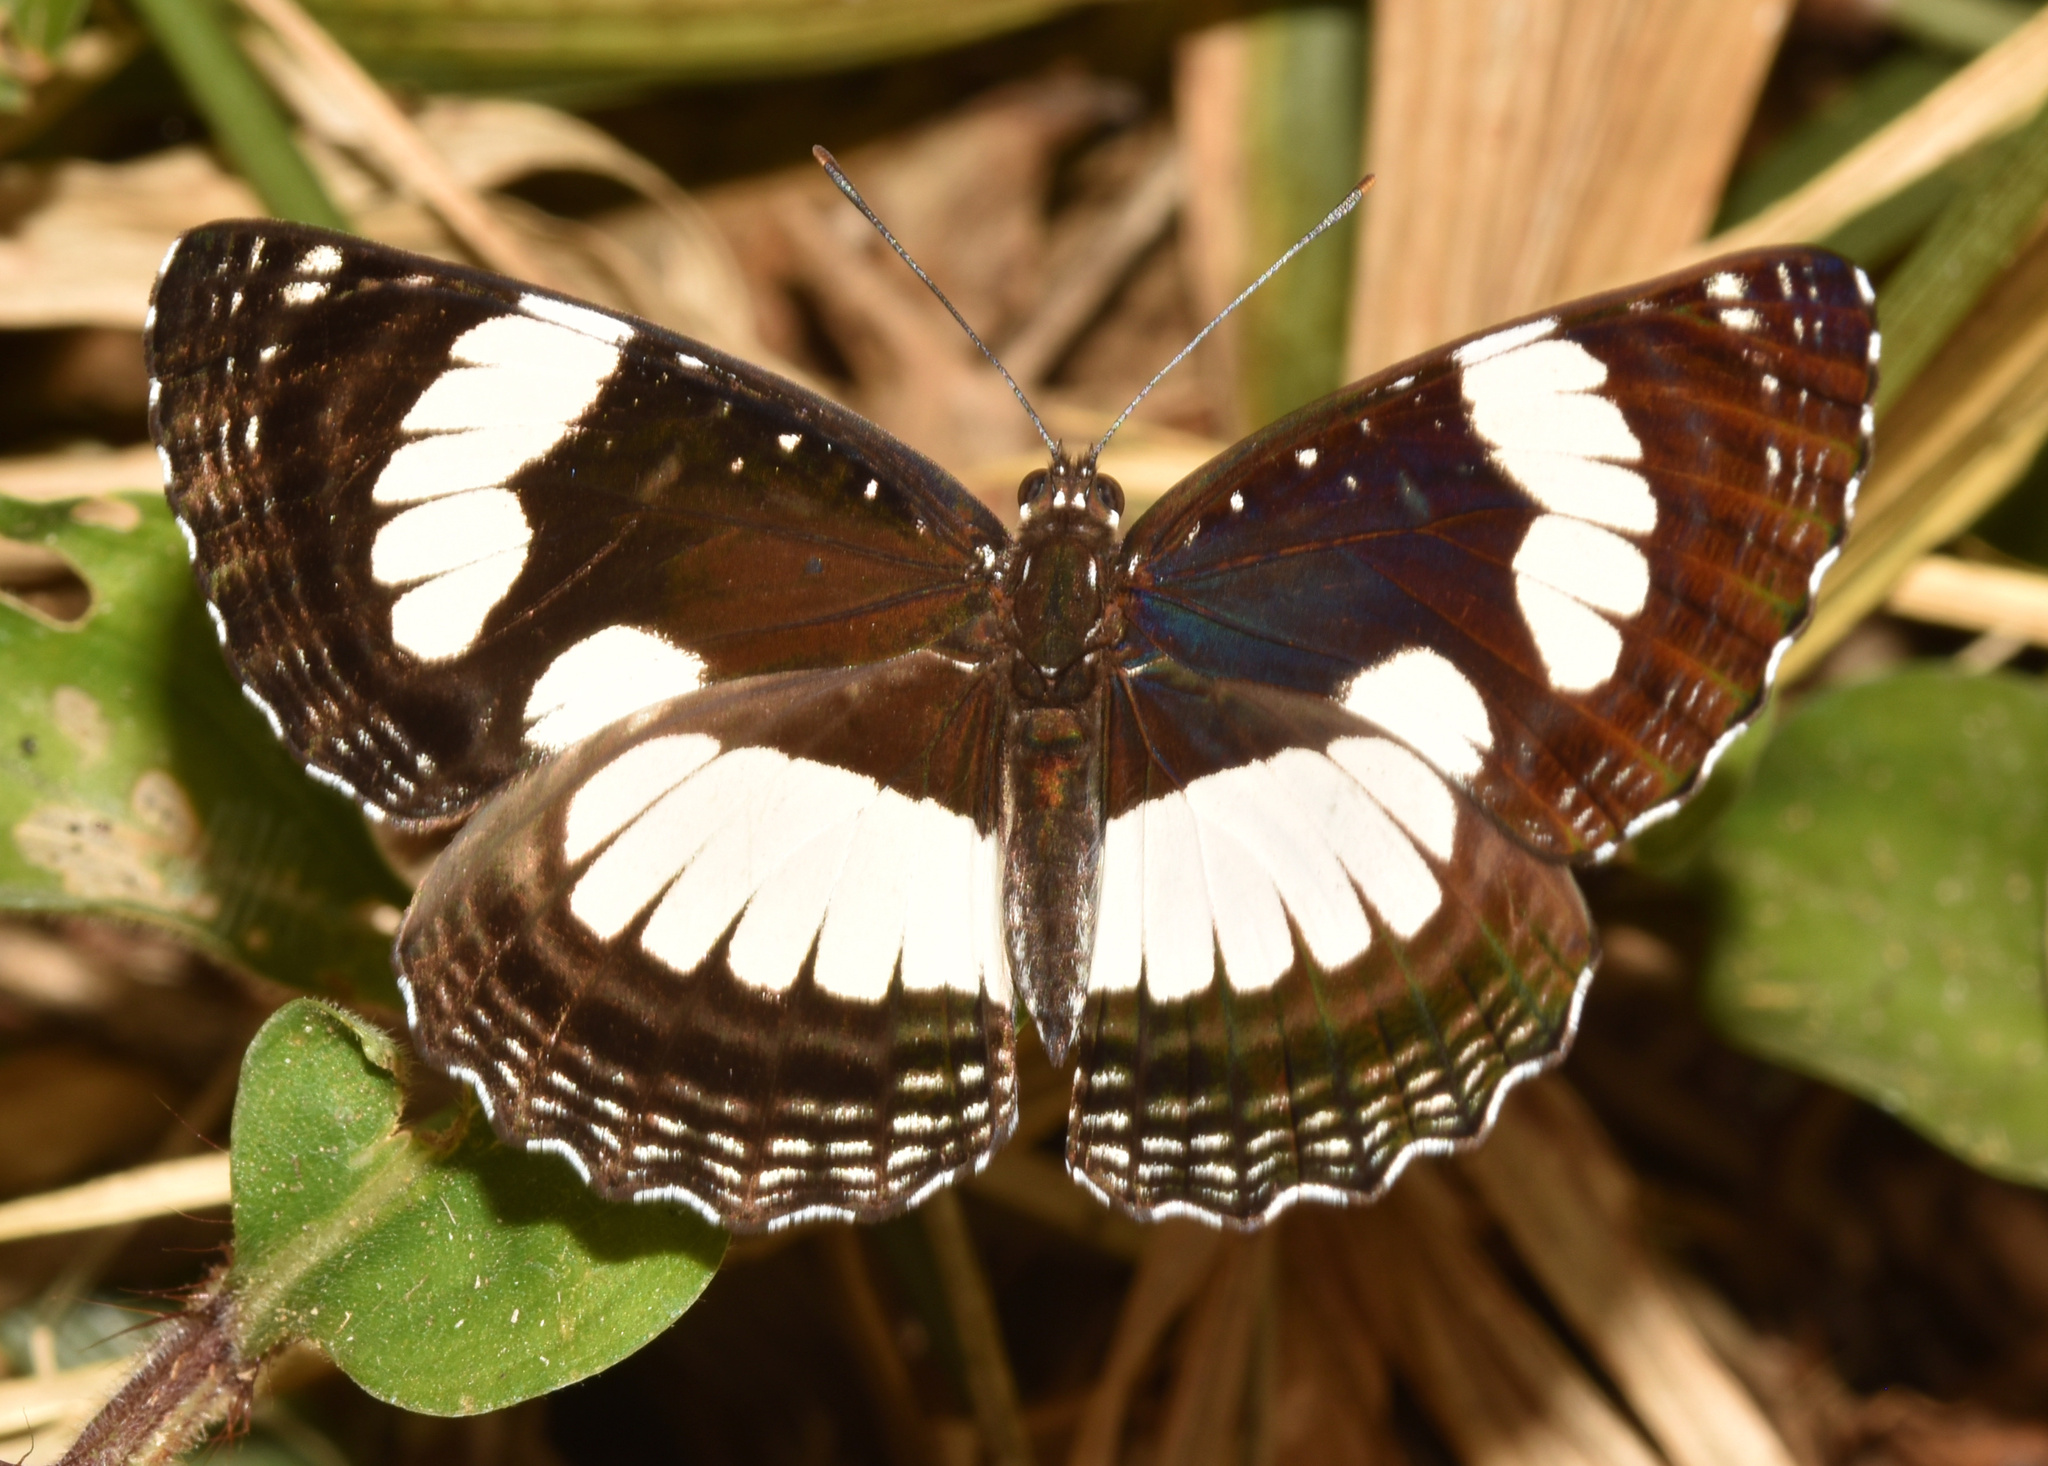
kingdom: Animalia
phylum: Arthropoda
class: Insecta
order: Lepidoptera
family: Nymphalidae
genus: Neptis
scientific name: Neptis laeta
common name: Common barred sailor
